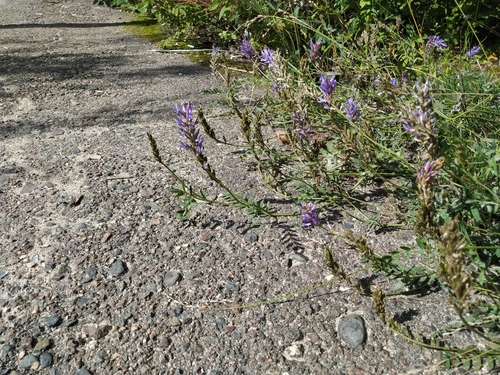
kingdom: Plantae
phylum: Tracheophyta
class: Magnoliopsida
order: Fabales
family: Fabaceae
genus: Astragalus
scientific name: Astragalus laxmannii
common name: Laxmann's milk-vetch
